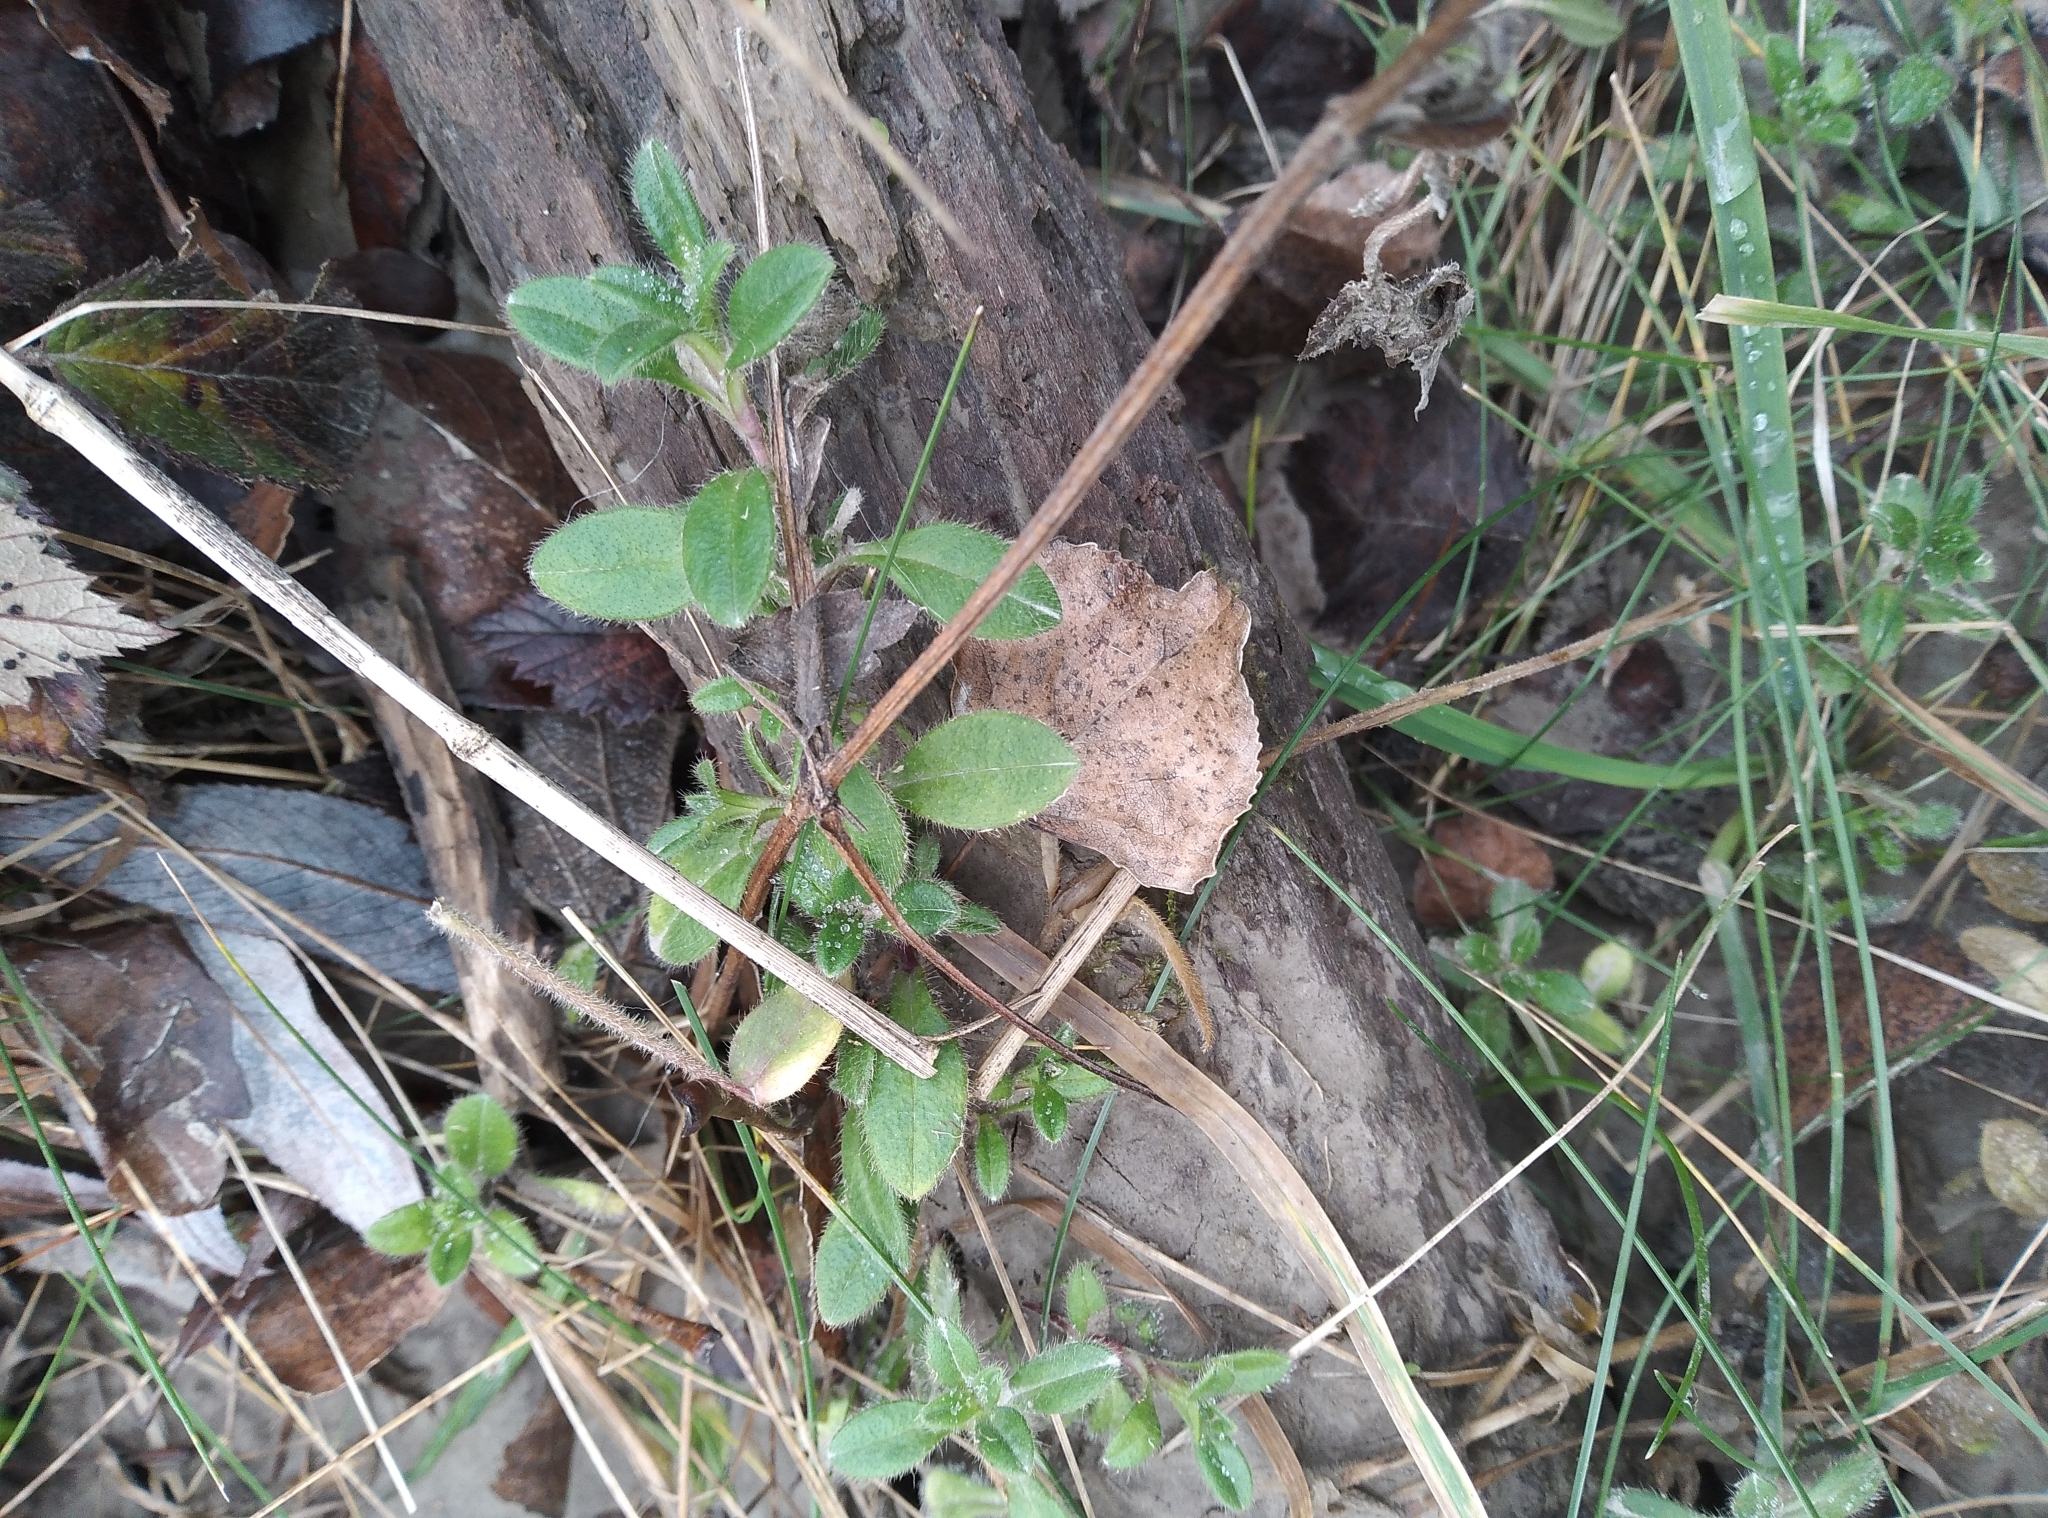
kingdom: Plantae
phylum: Tracheophyta
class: Magnoliopsida
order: Caryophyllales
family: Caryophyllaceae
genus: Cerastium
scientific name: Cerastium fontanum
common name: Common mouse-ear
